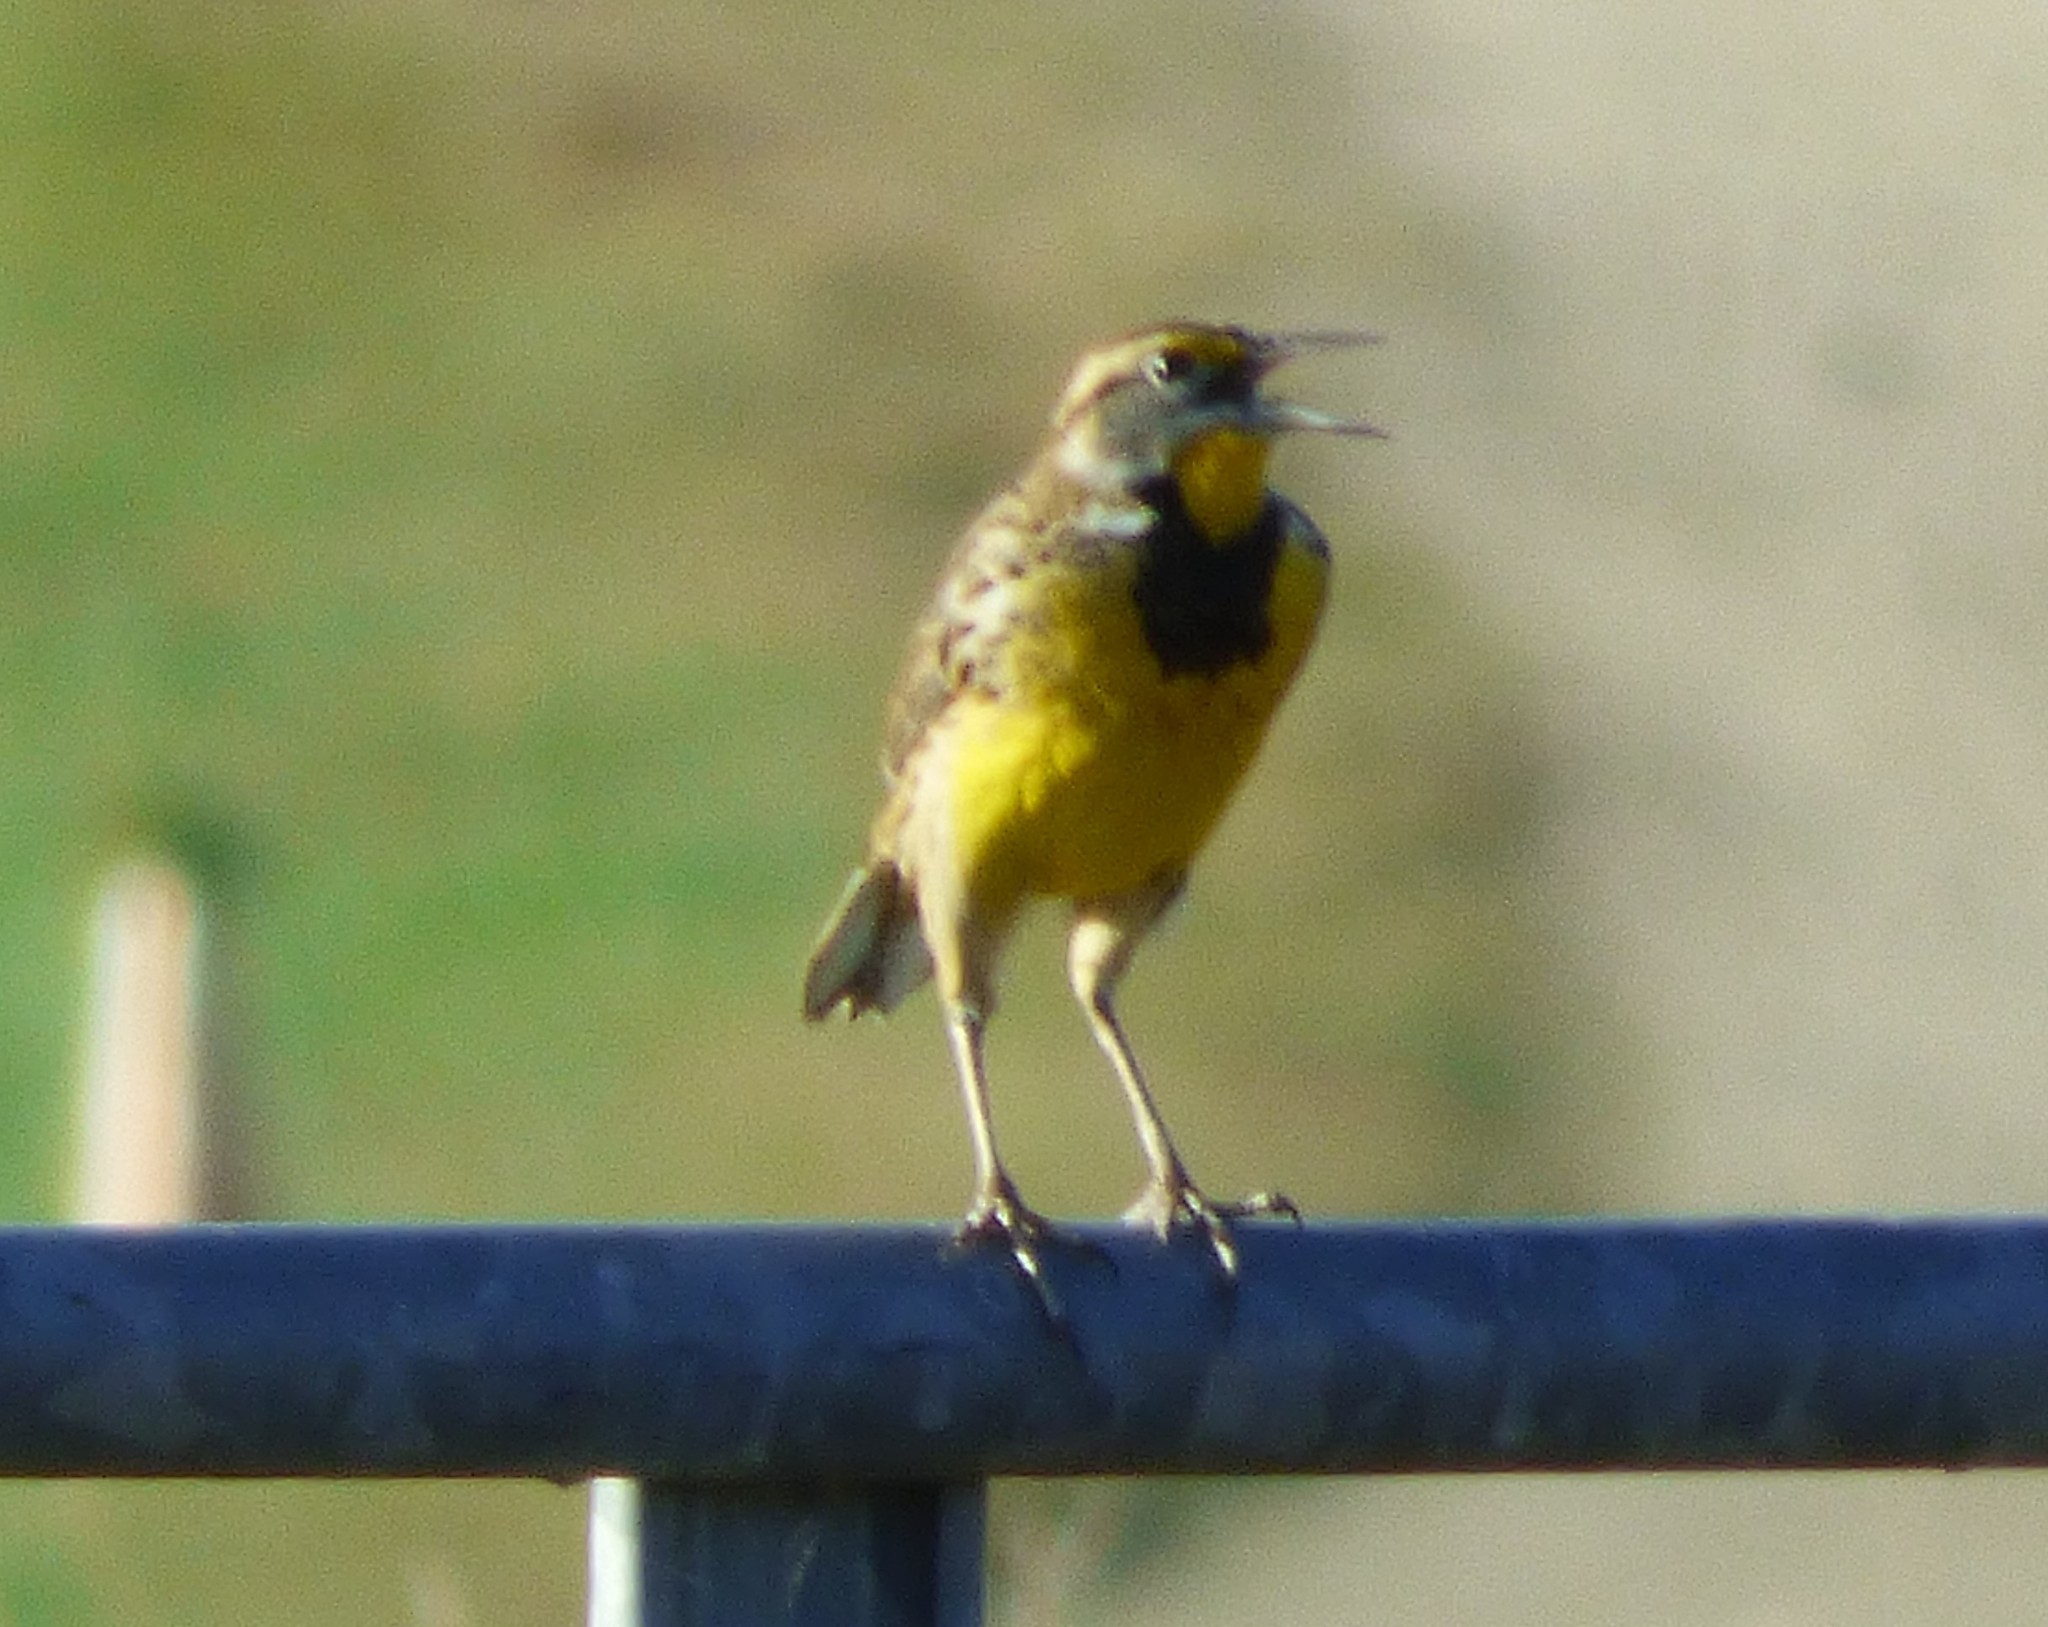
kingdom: Animalia
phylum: Chordata
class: Aves
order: Passeriformes
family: Icteridae
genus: Sturnella
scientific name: Sturnella magna
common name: Eastern meadowlark
